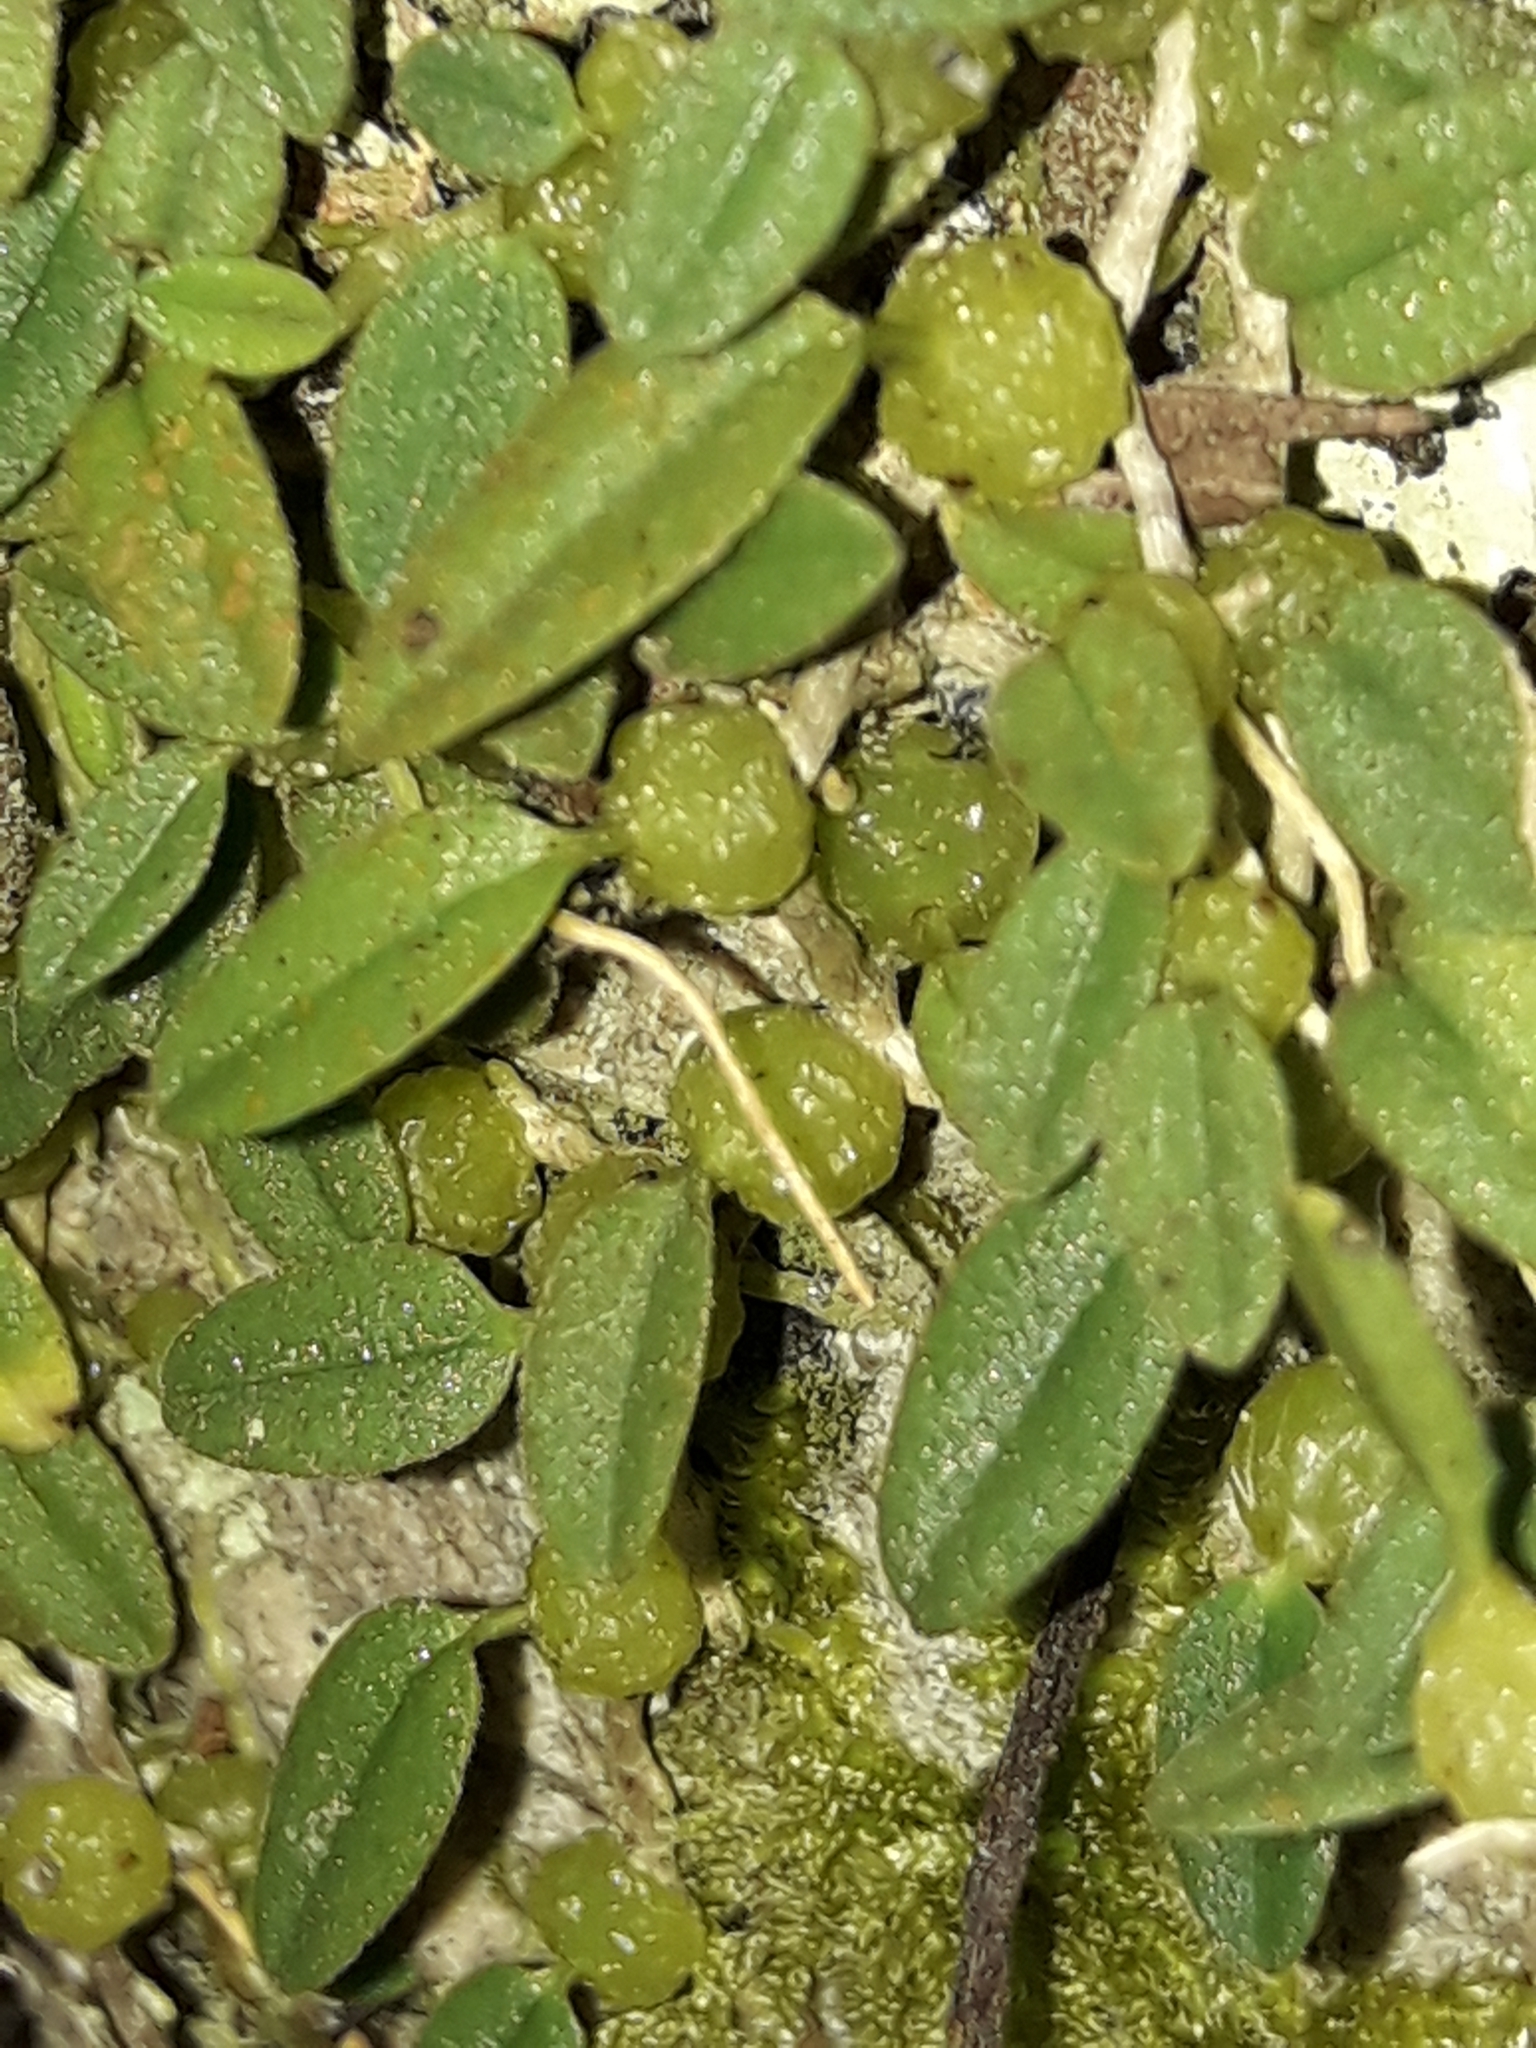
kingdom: Plantae
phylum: Tracheophyta
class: Liliopsida
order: Asparagales
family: Orchidaceae
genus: Bulbophyllum
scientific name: Bulbophyllum pygmaeum
